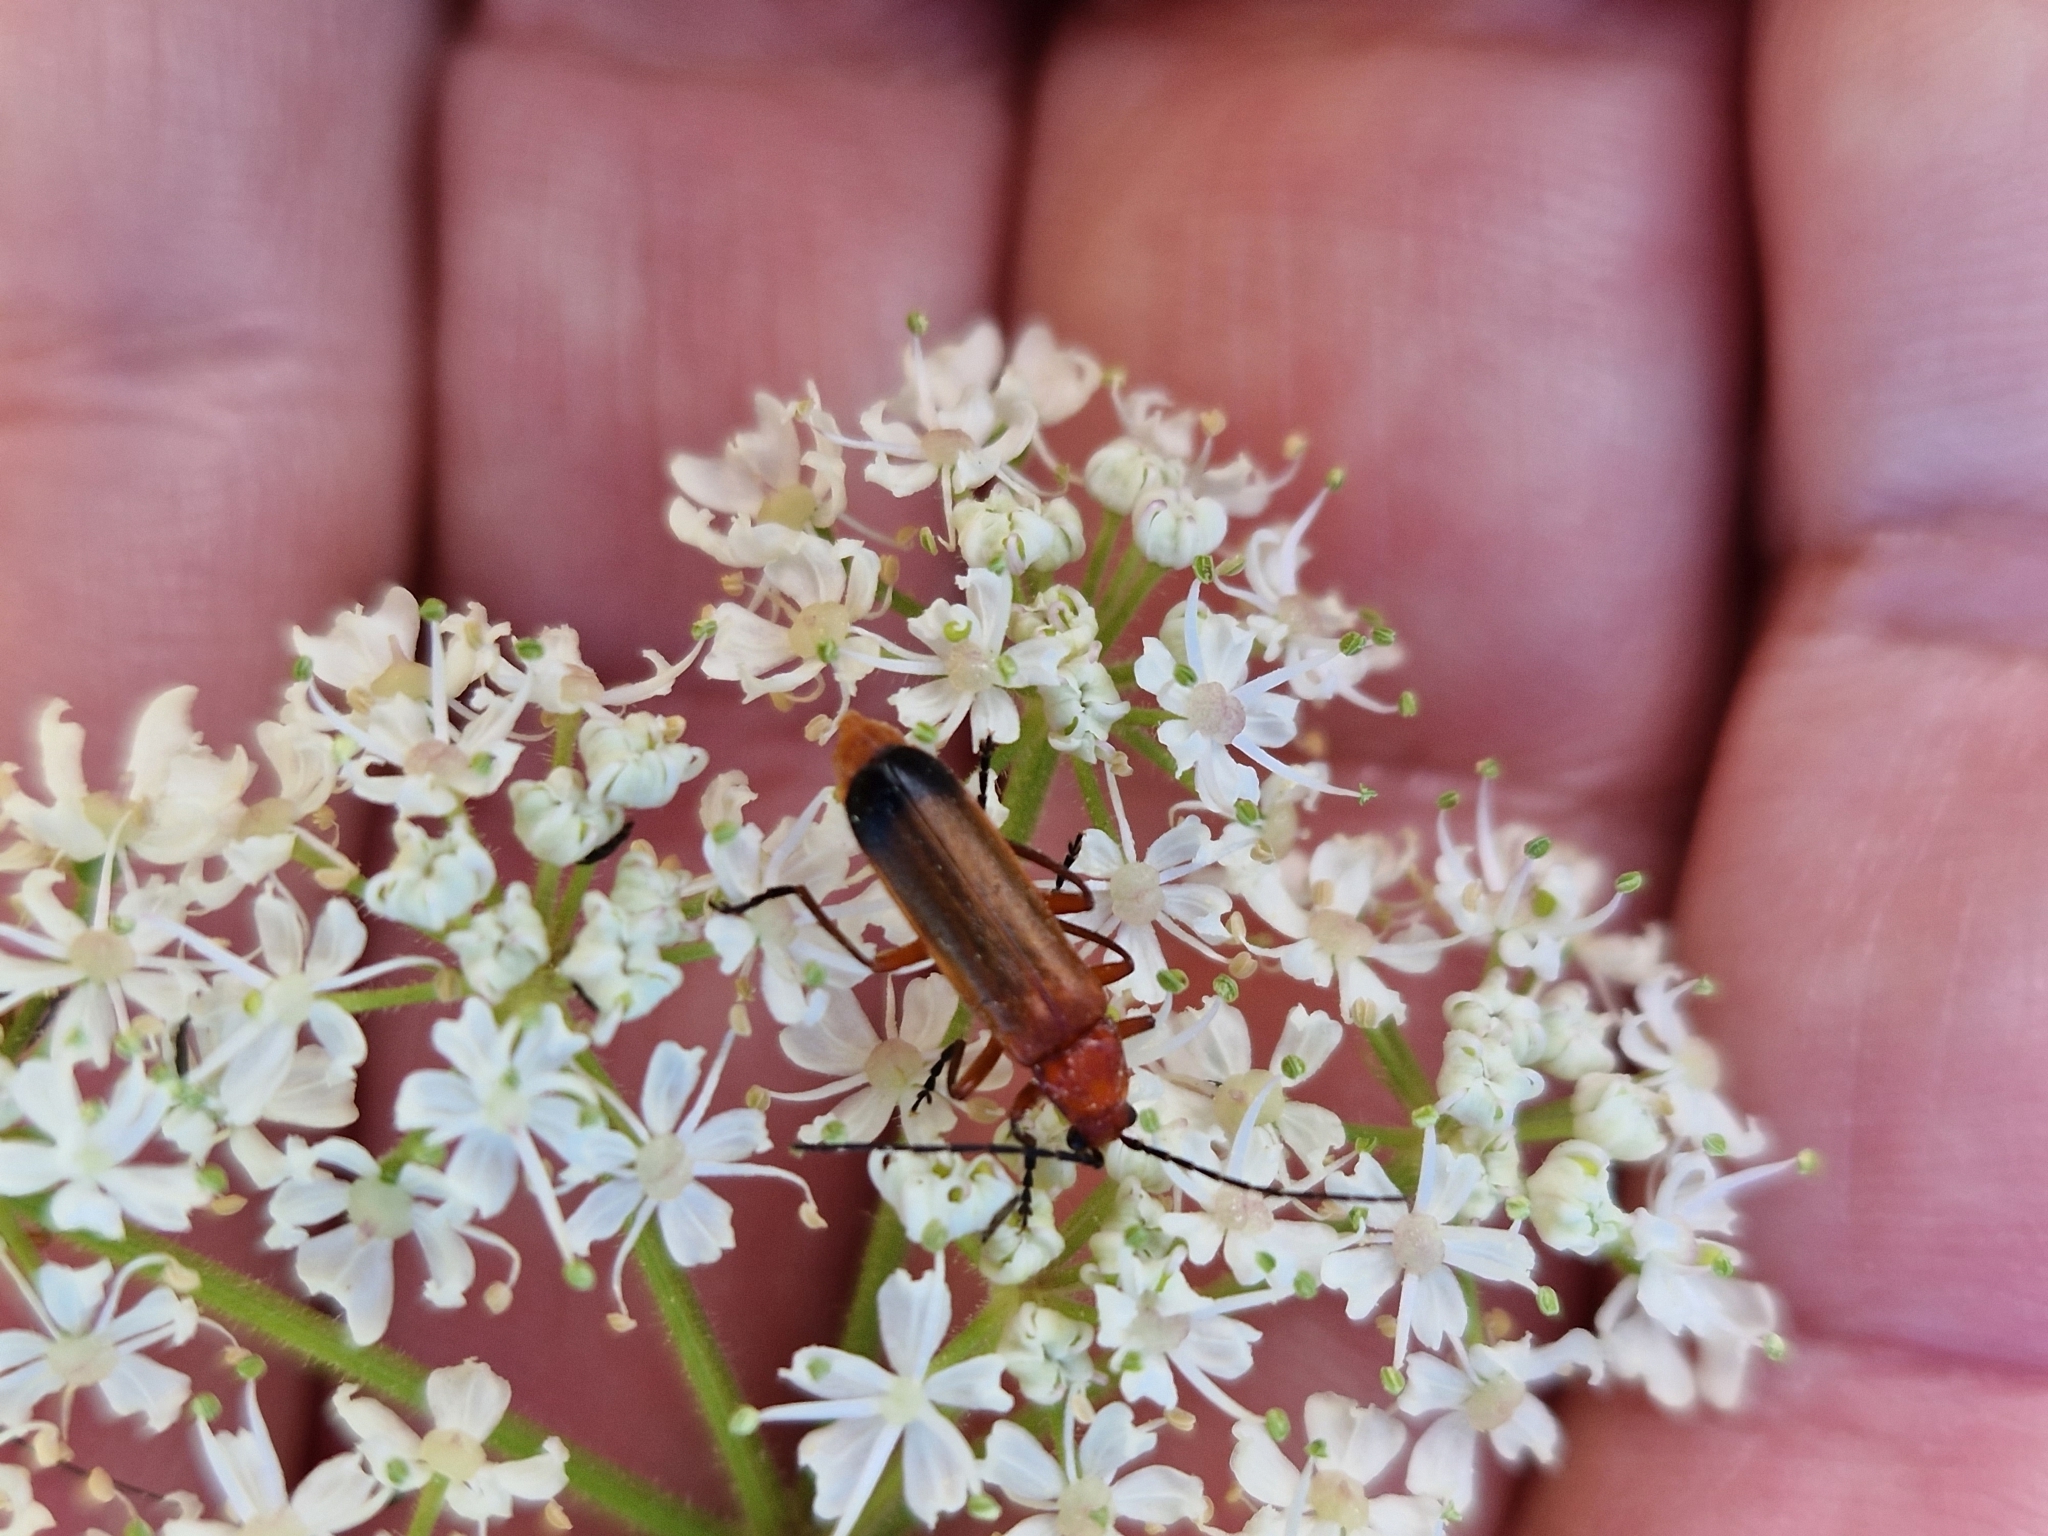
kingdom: Animalia
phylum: Arthropoda
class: Insecta
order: Coleoptera
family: Cantharidae
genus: Rhagonycha
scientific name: Rhagonycha fulva
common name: Common red soldier beetle
